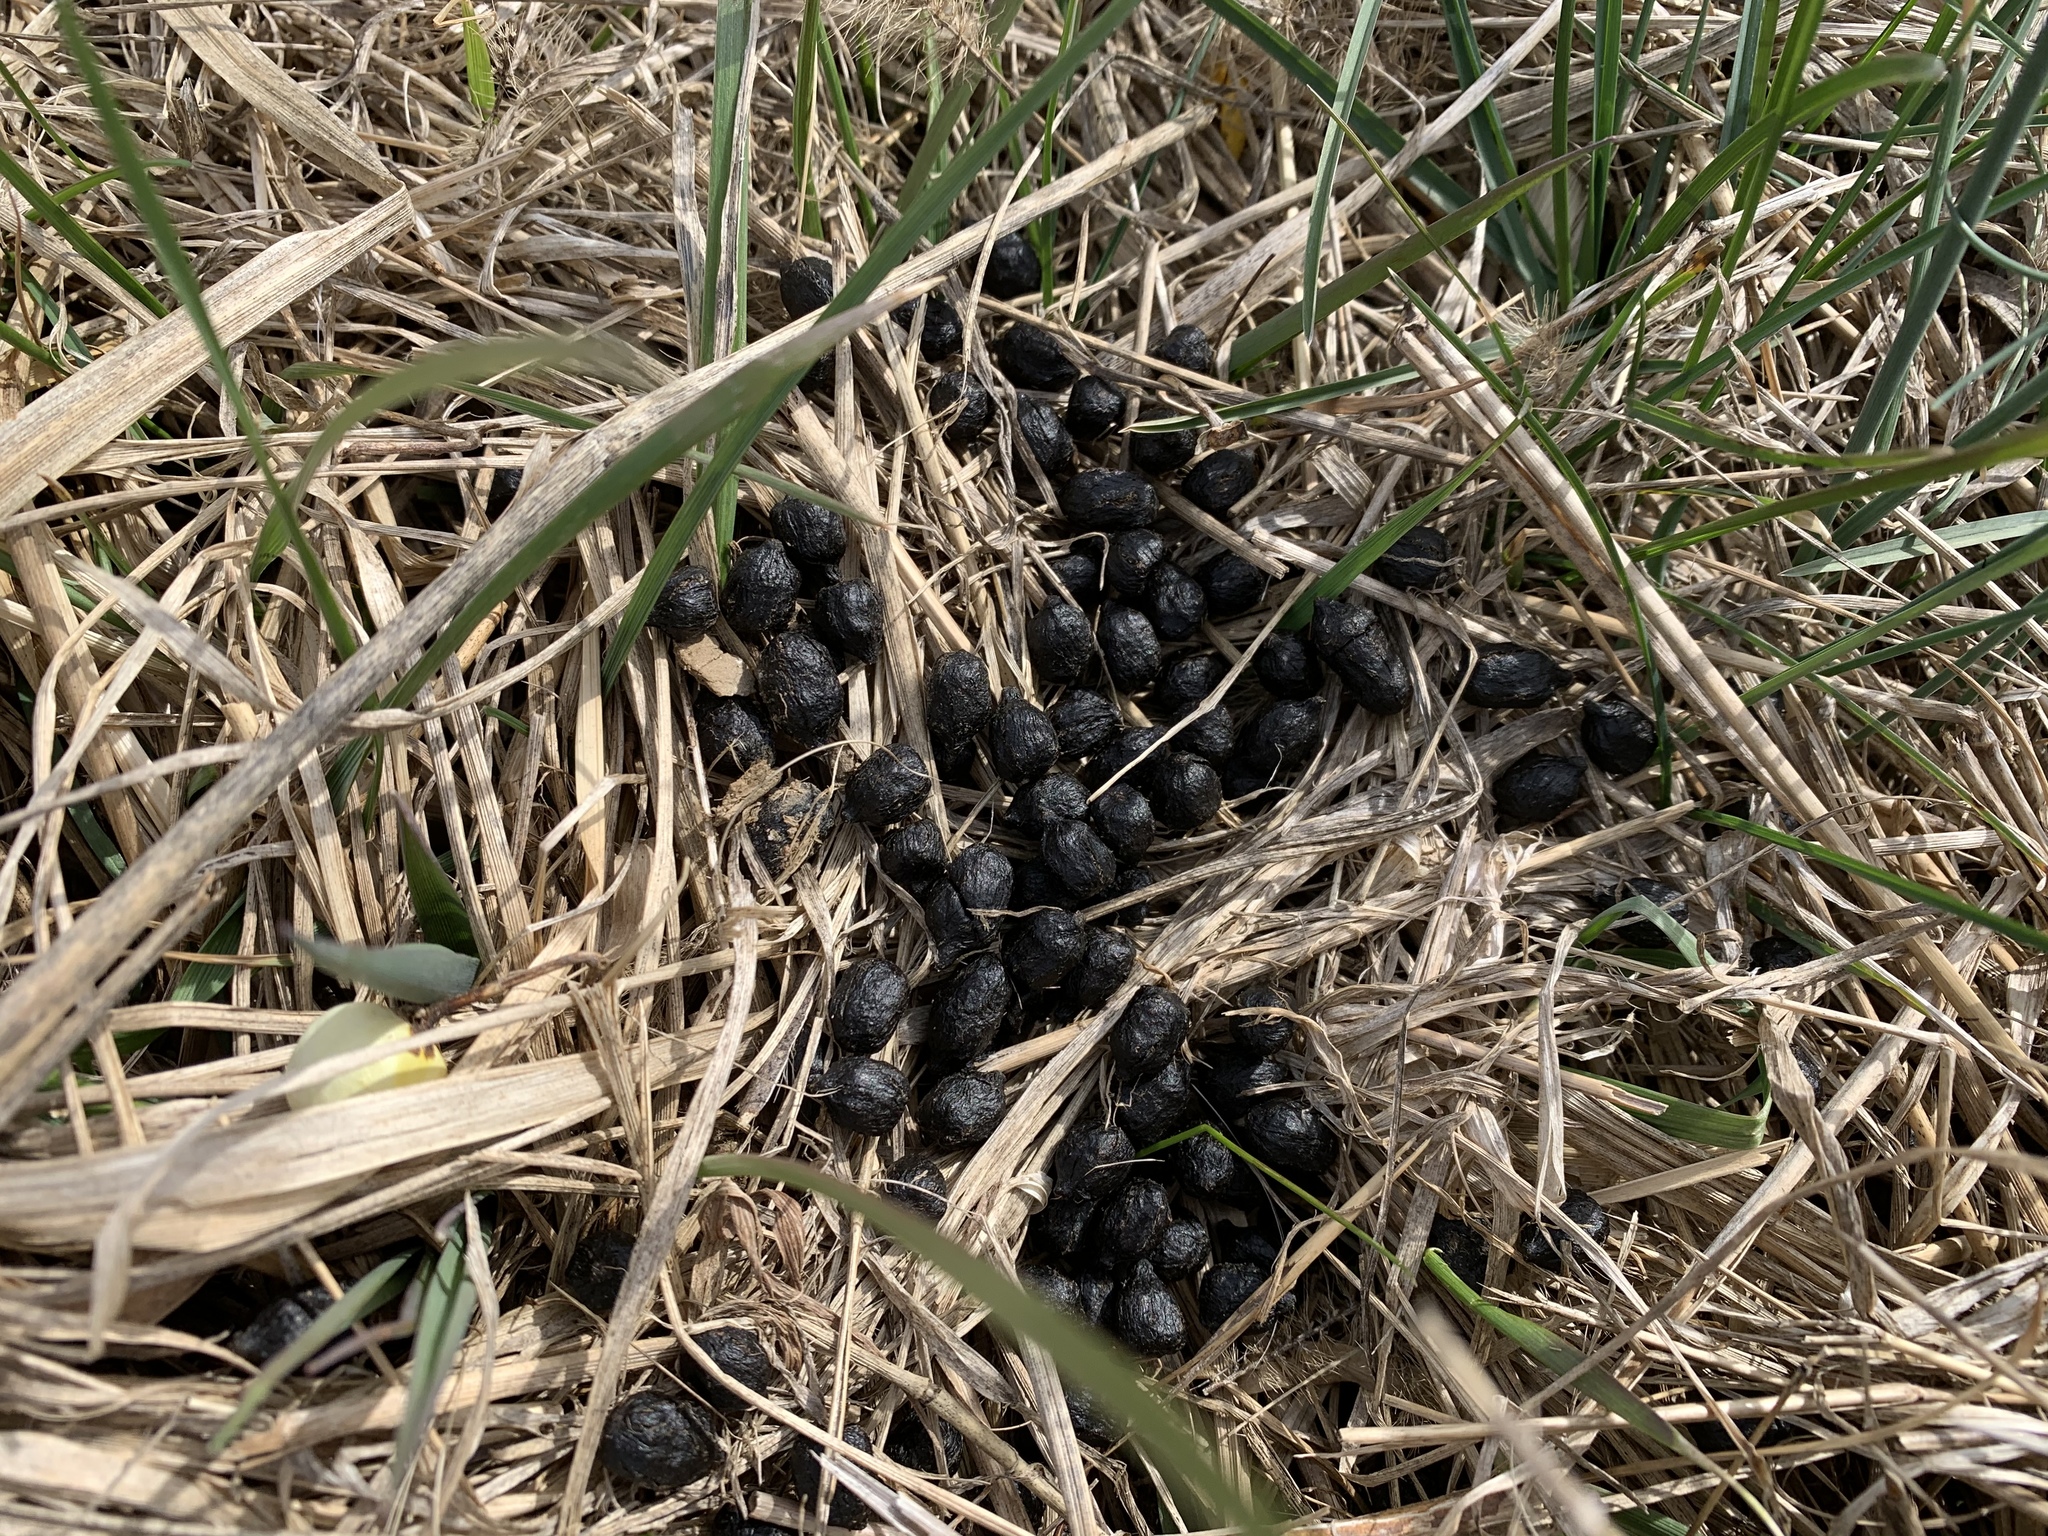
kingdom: Animalia
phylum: Chordata
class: Mammalia
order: Artiodactyla
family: Cervidae
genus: Odocoileus
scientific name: Odocoileus virginianus
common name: White-tailed deer
